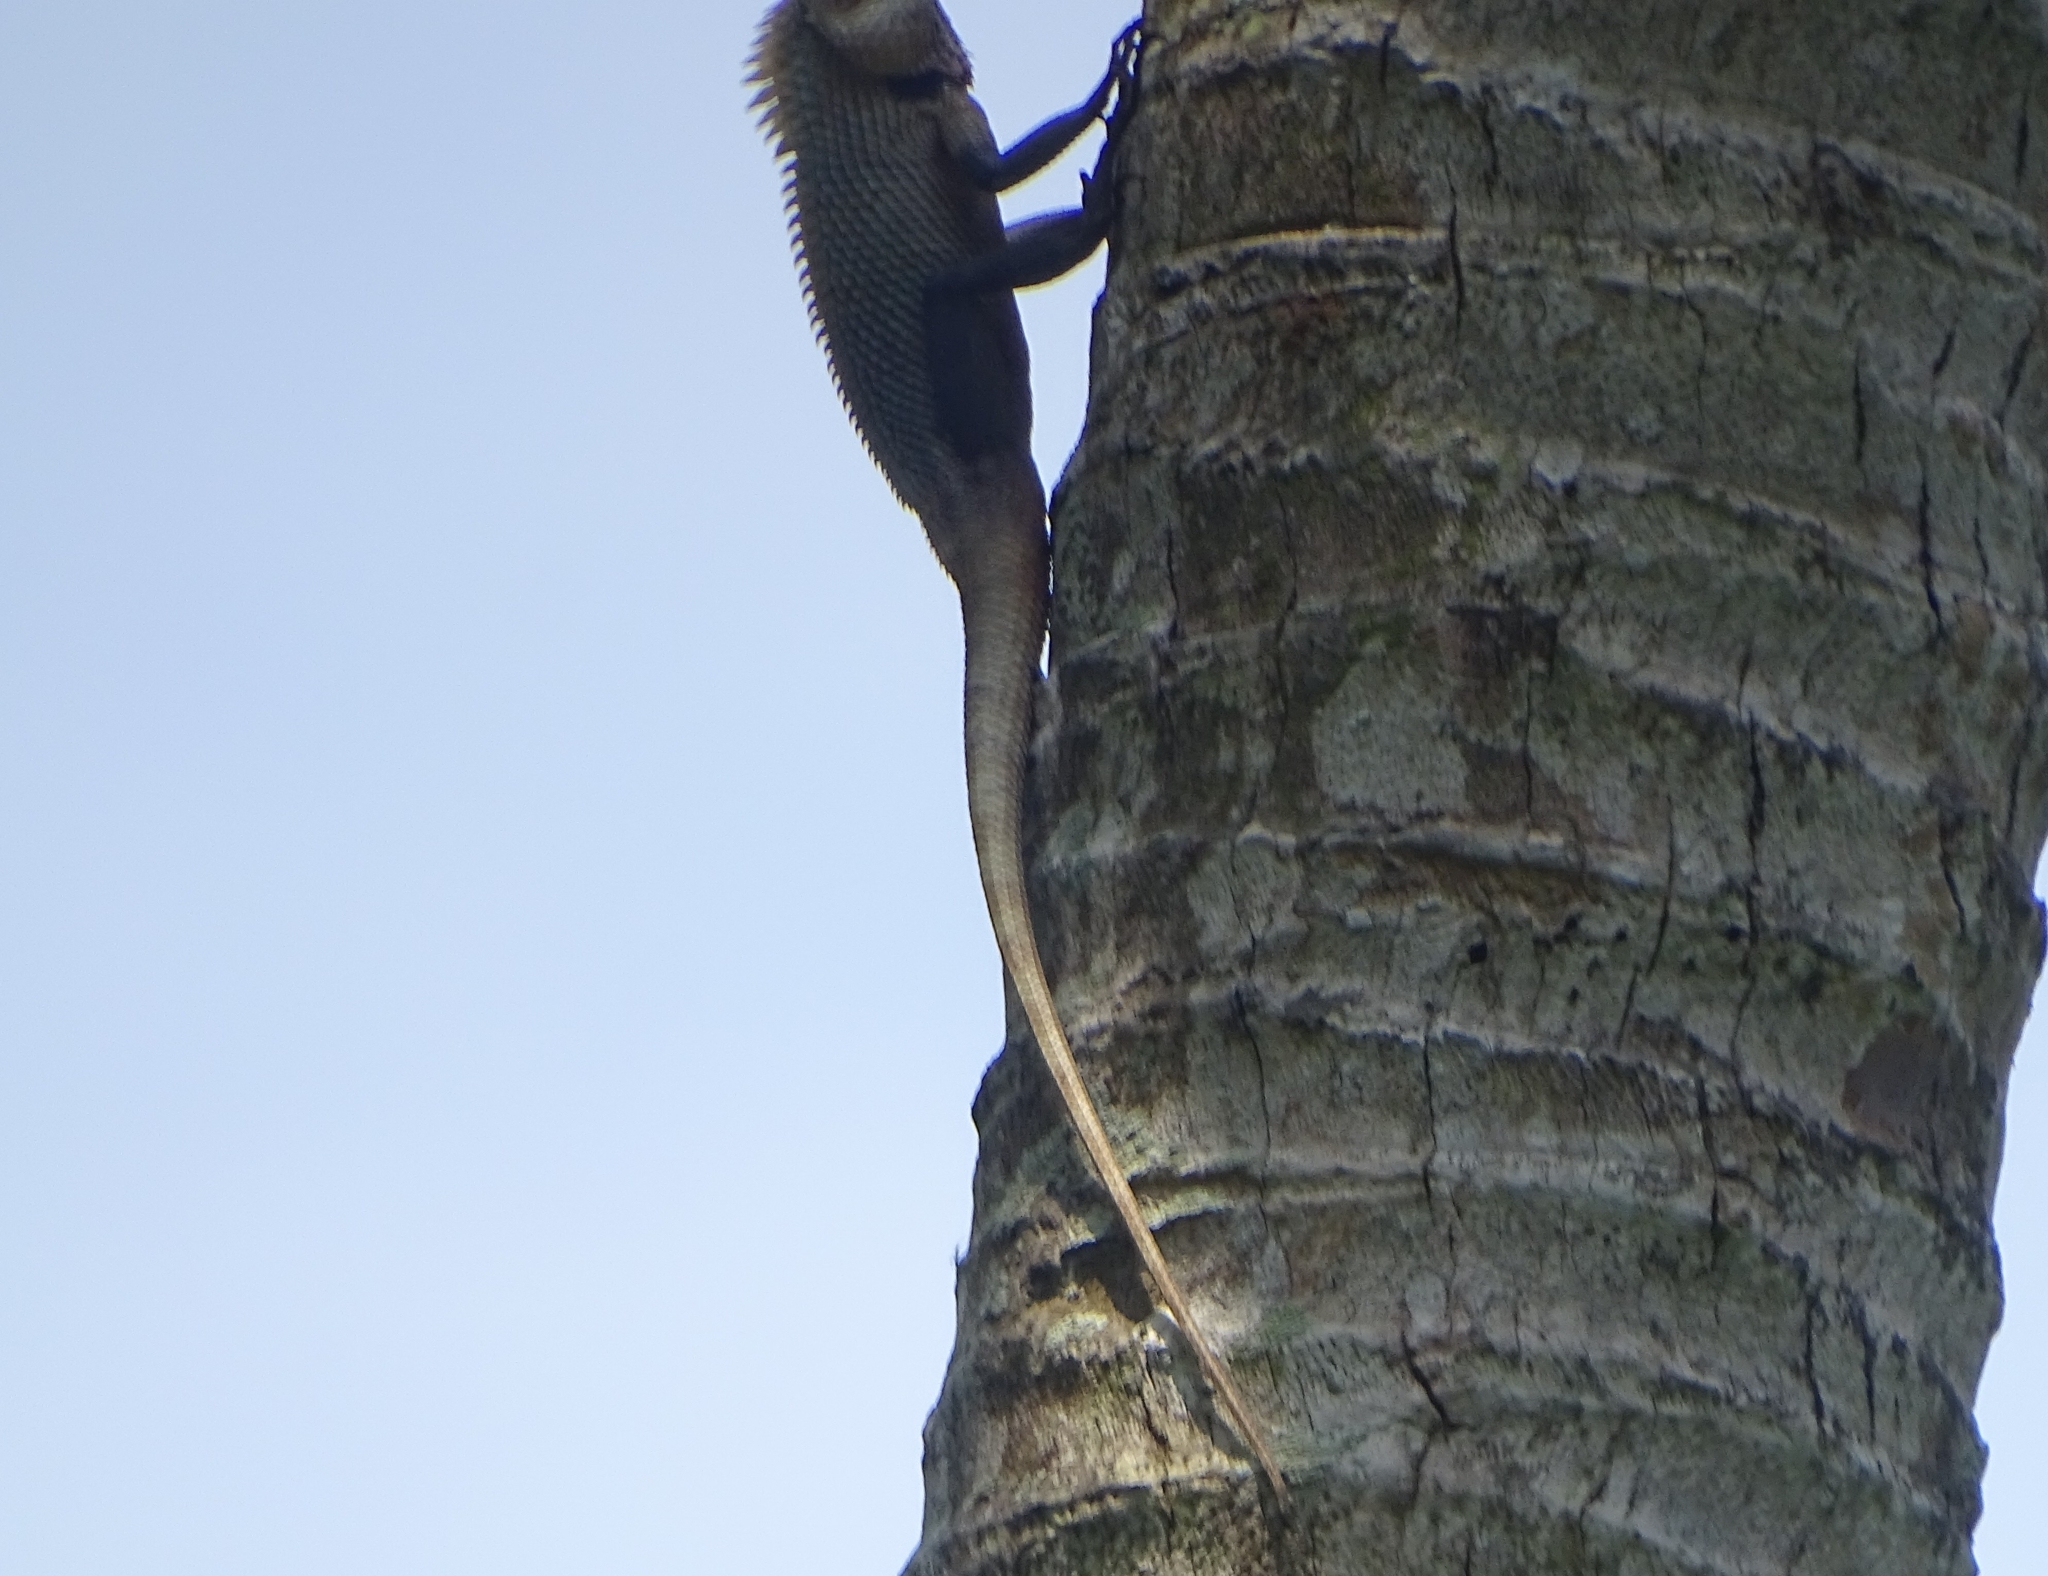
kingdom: Animalia
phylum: Chordata
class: Squamata
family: Agamidae
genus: Calotes
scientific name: Calotes versicolor
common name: Oriental garden lizard
